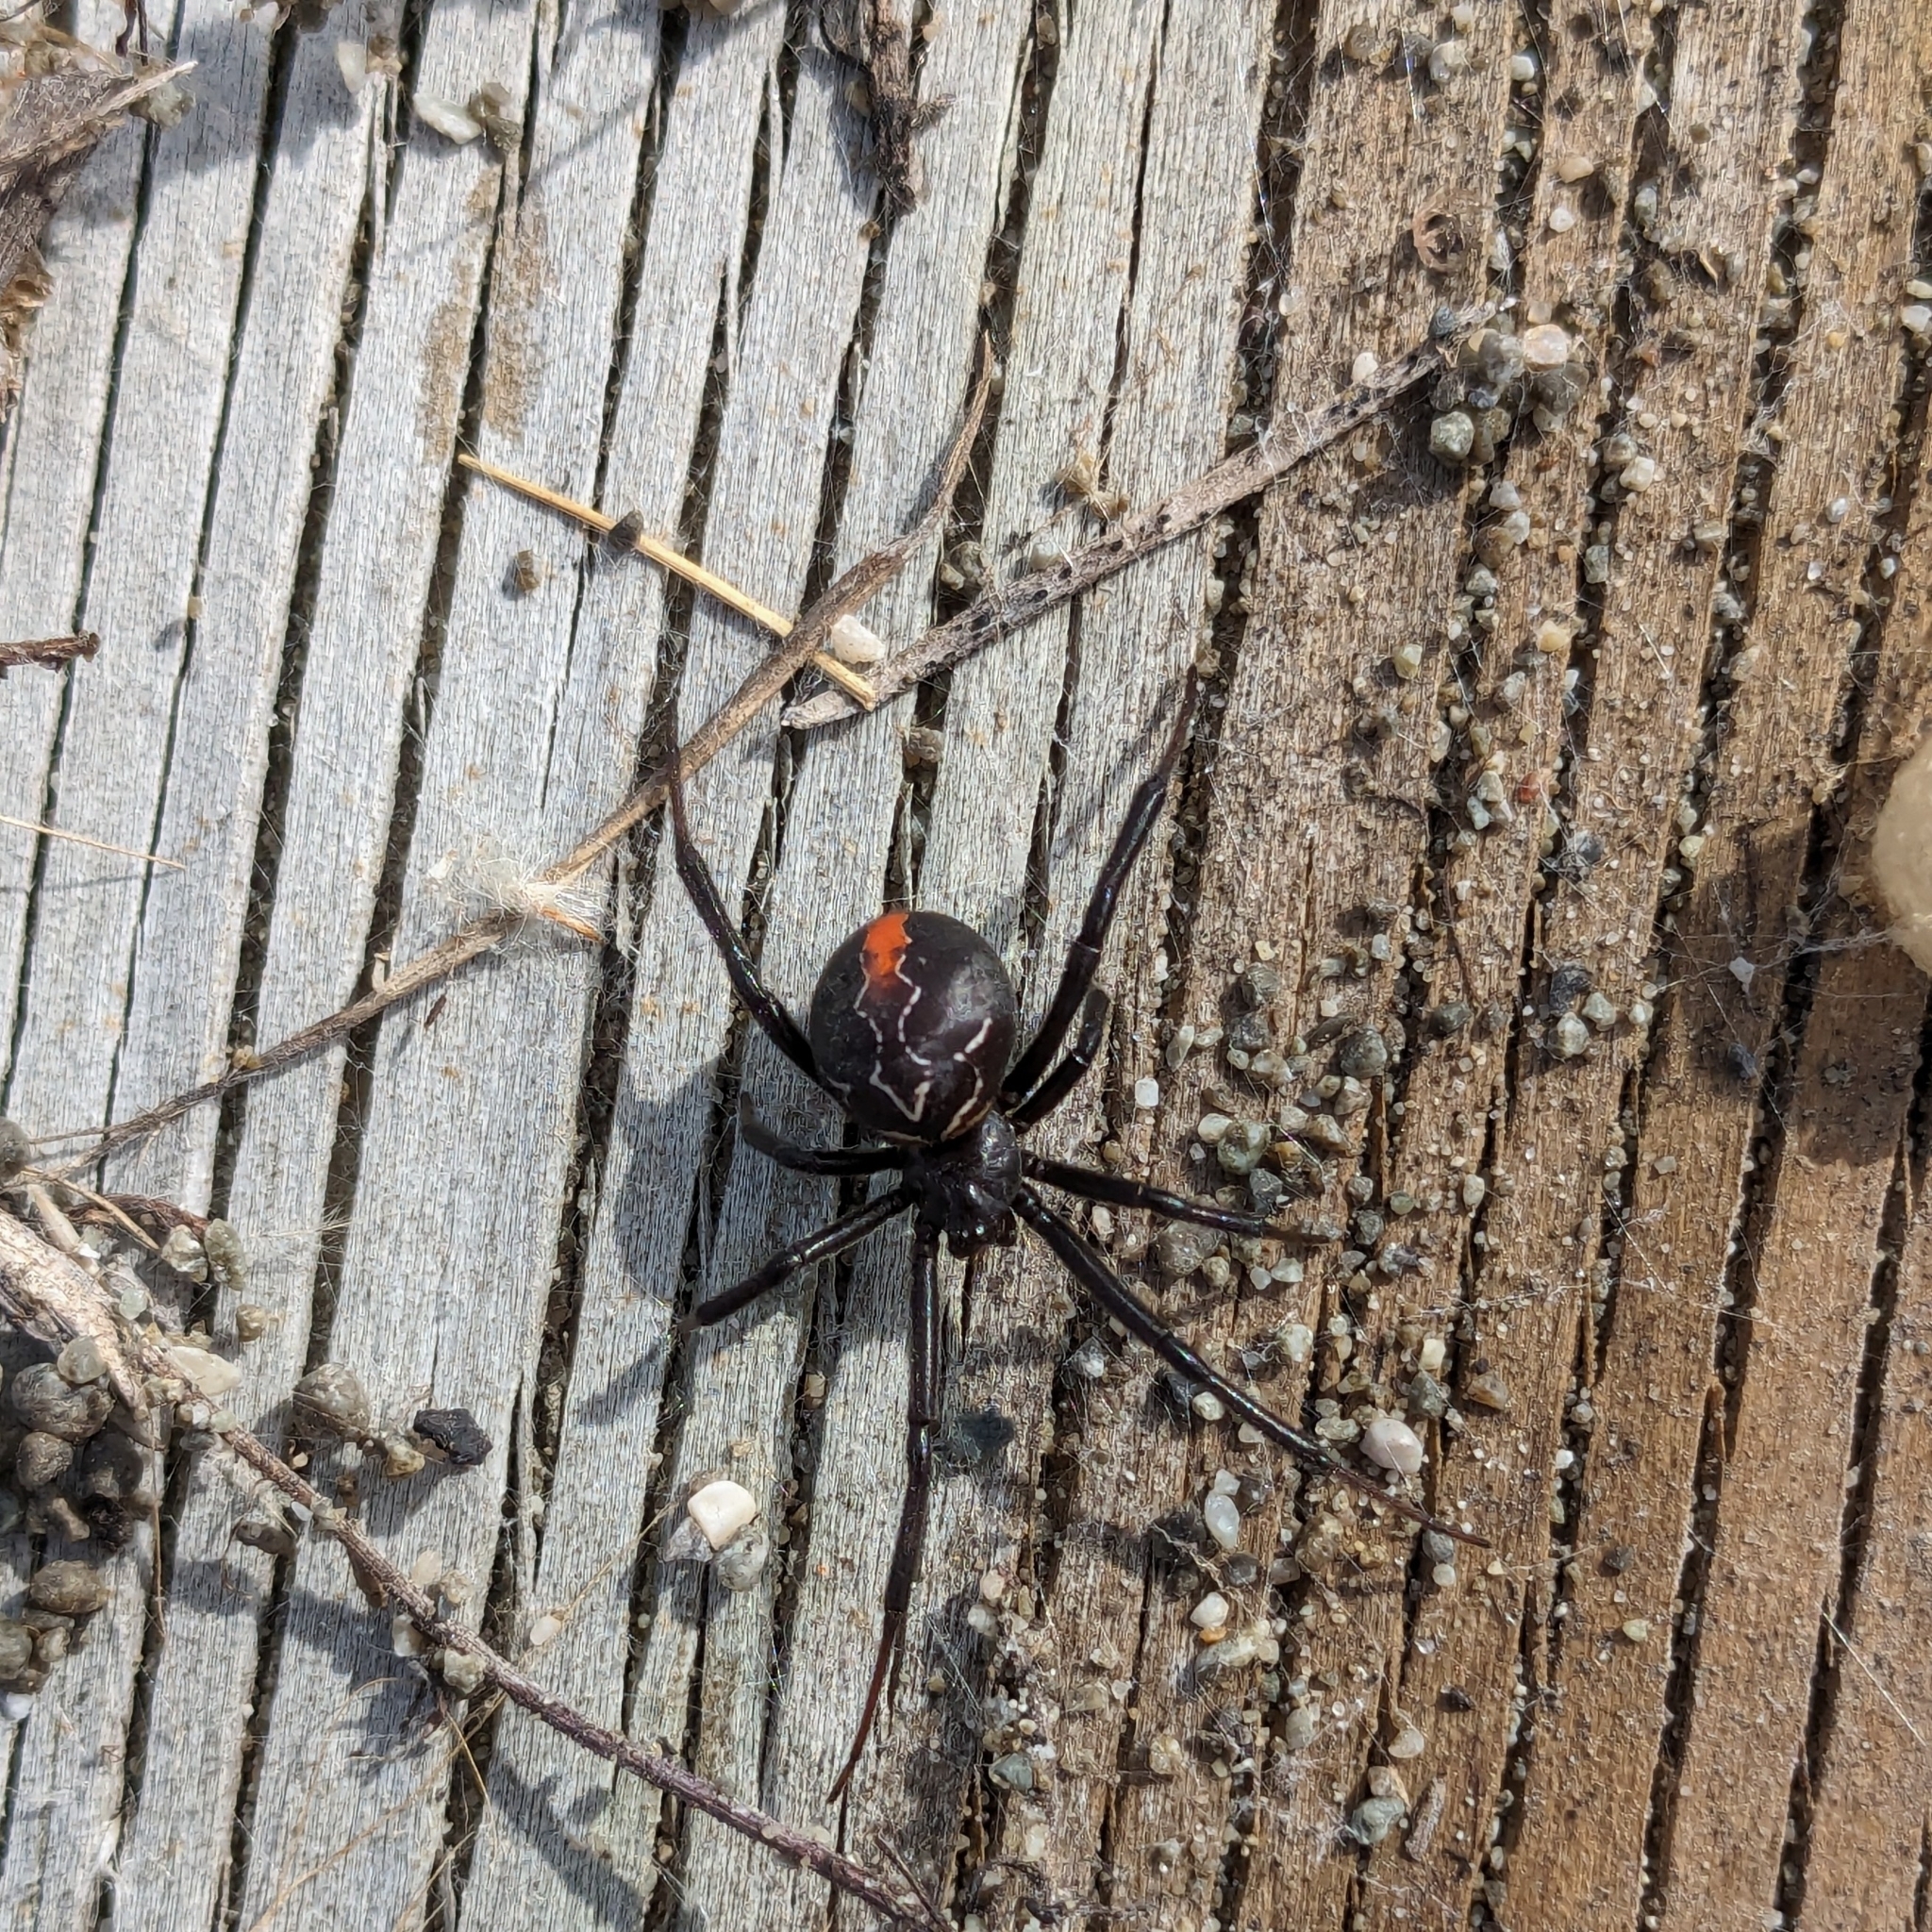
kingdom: Animalia
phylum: Arthropoda
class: Arachnida
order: Araneae
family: Theridiidae
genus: Latrodectus
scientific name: Latrodectus katipo
